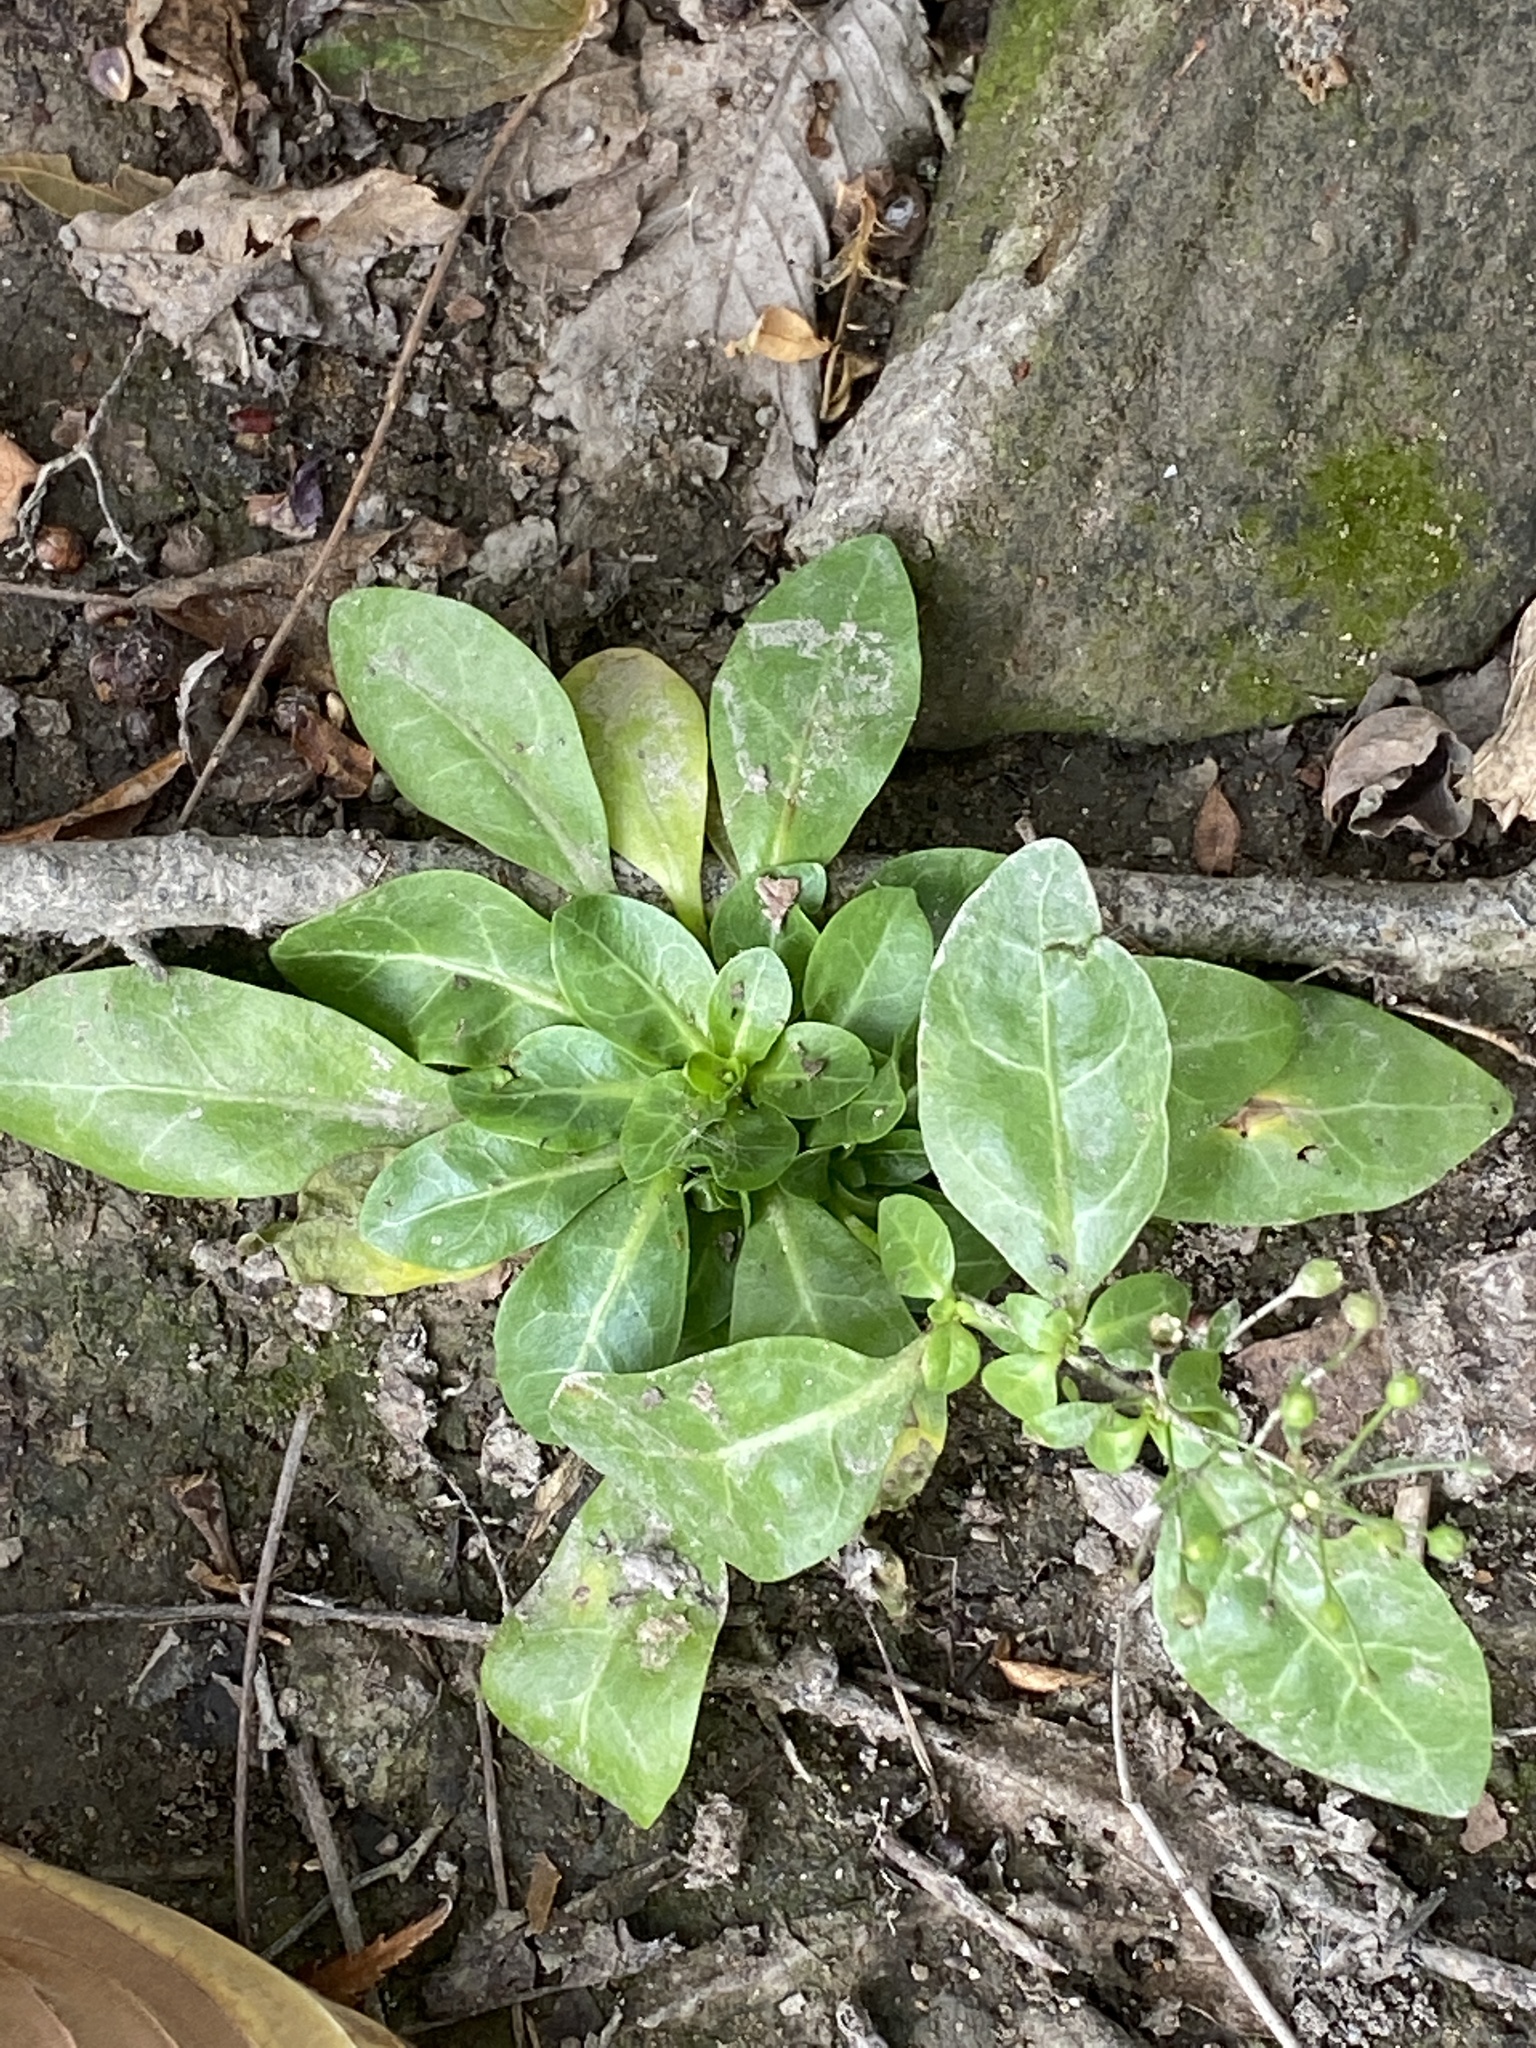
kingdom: Plantae
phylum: Tracheophyta
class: Magnoliopsida
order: Ericales
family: Primulaceae
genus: Samolus
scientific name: Samolus parviflorus
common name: False water pimpernel
